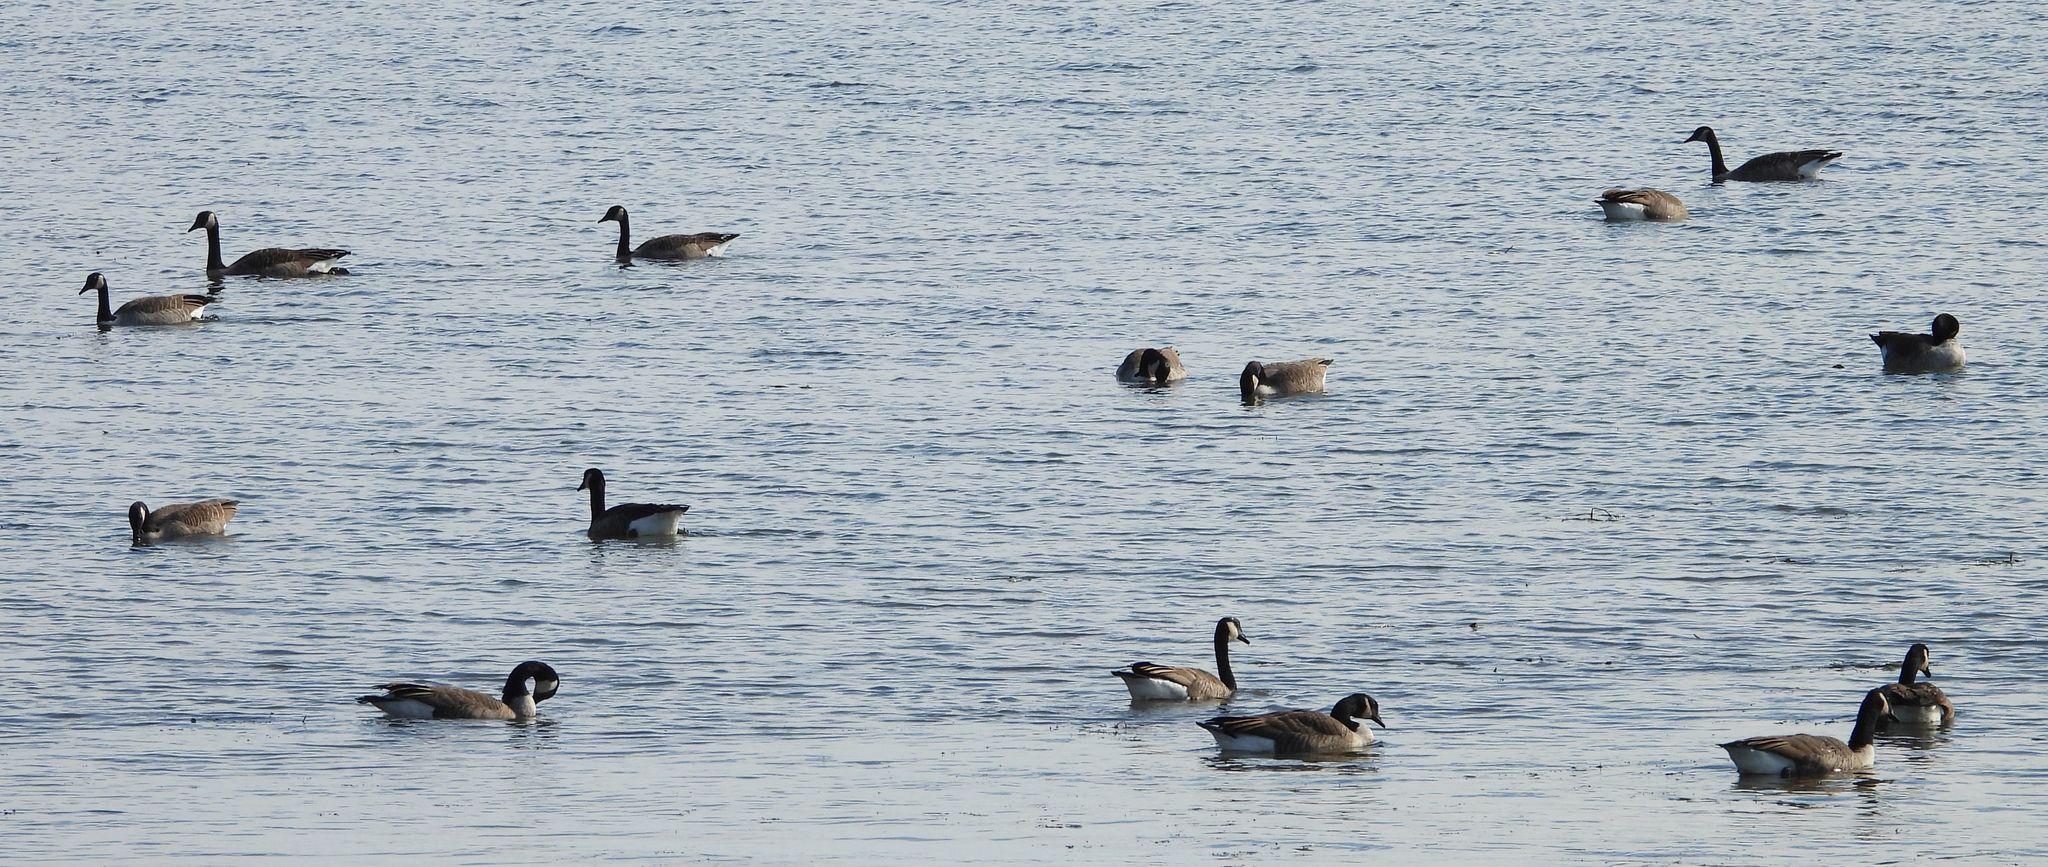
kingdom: Animalia
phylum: Chordata
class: Aves
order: Anseriformes
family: Anatidae
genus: Branta
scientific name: Branta canadensis
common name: Canada goose
